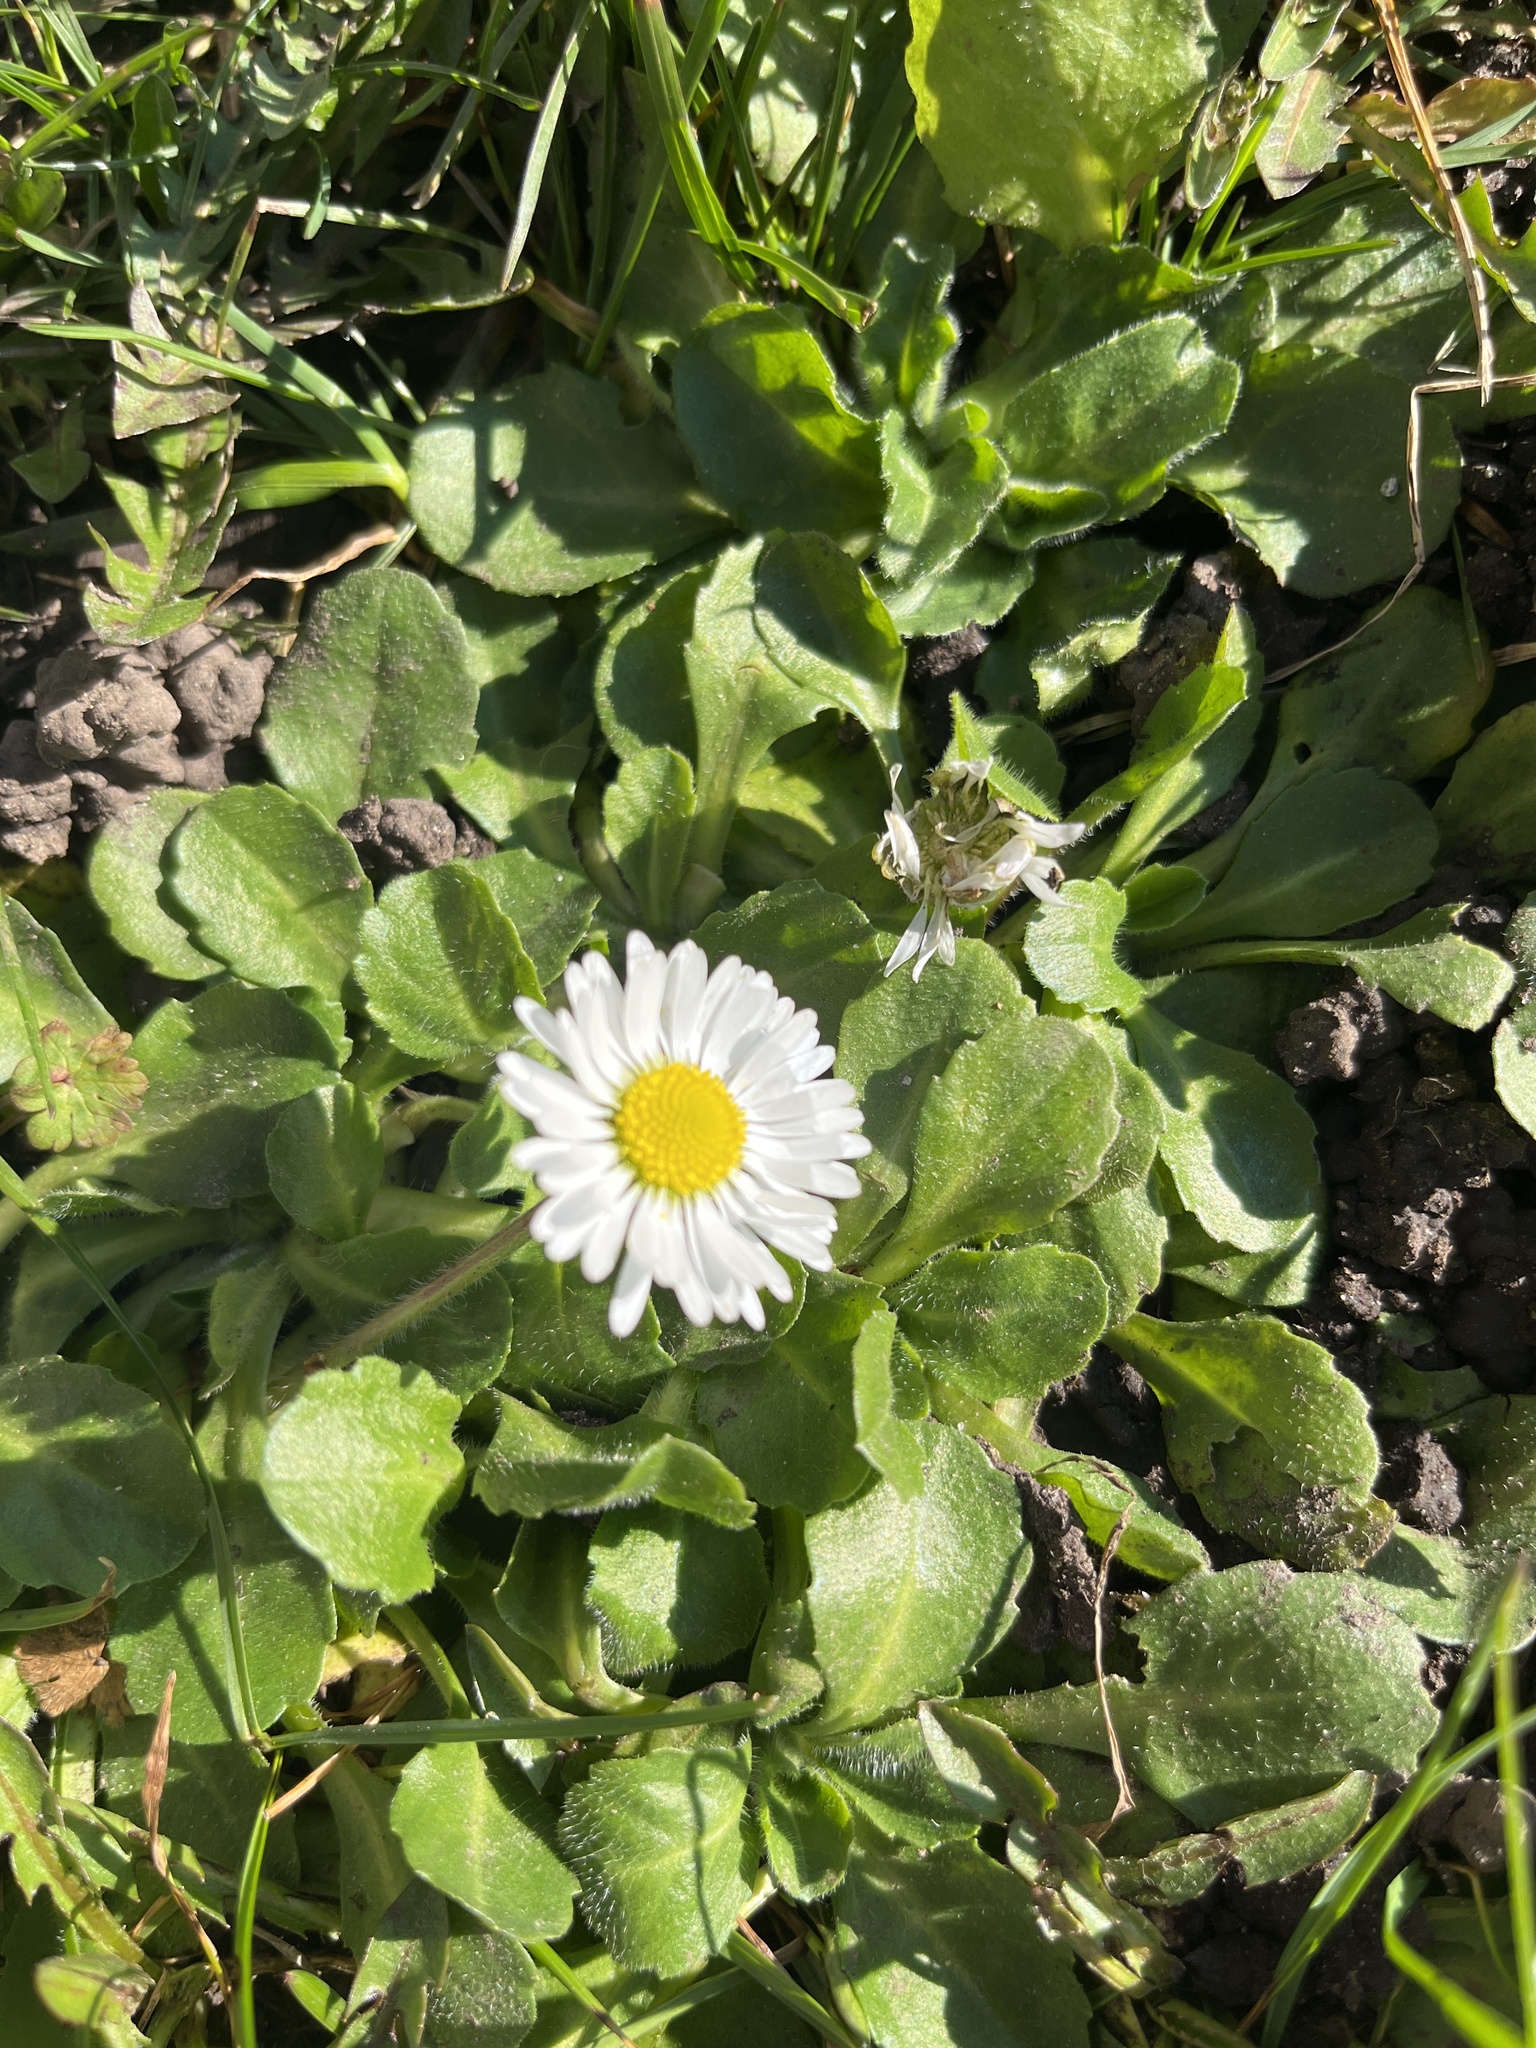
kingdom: Plantae
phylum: Tracheophyta
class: Magnoliopsida
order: Asterales
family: Asteraceae
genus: Bellis
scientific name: Bellis perennis
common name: Lawndaisy
